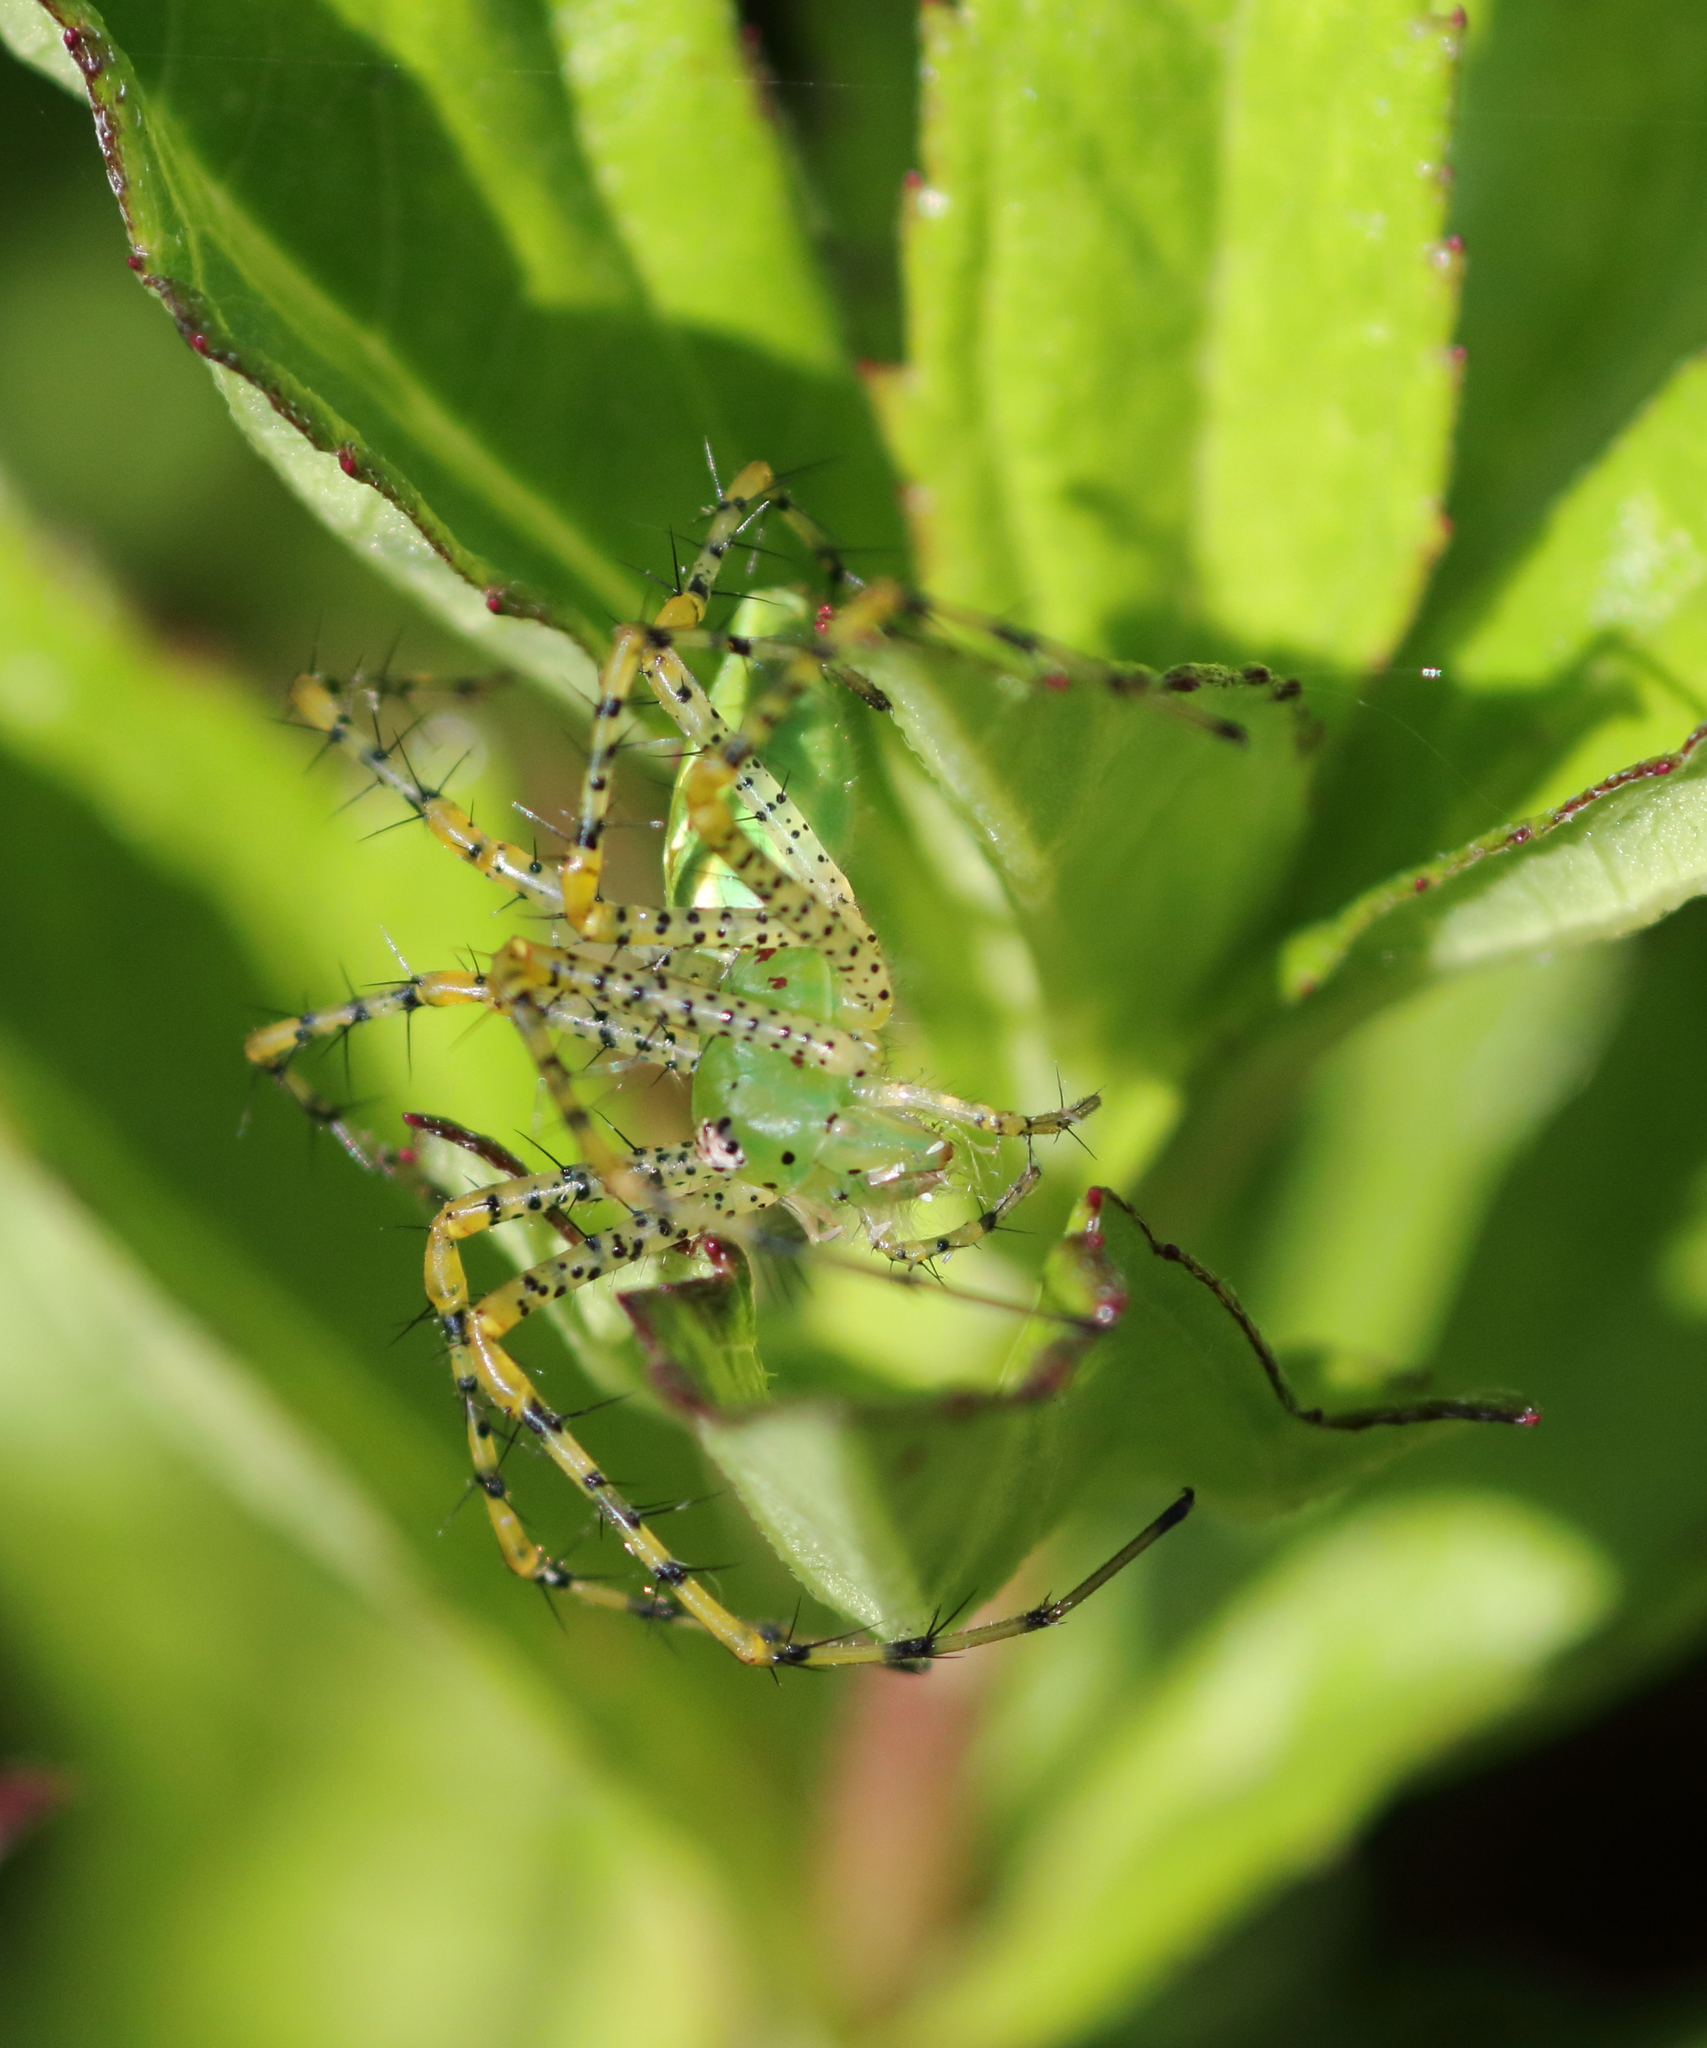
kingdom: Animalia
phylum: Arthropoda
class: Arachnida
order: Araneae
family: Oxyopidae
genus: Peucetia
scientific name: Peucetia viridans
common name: Lynx spiders
